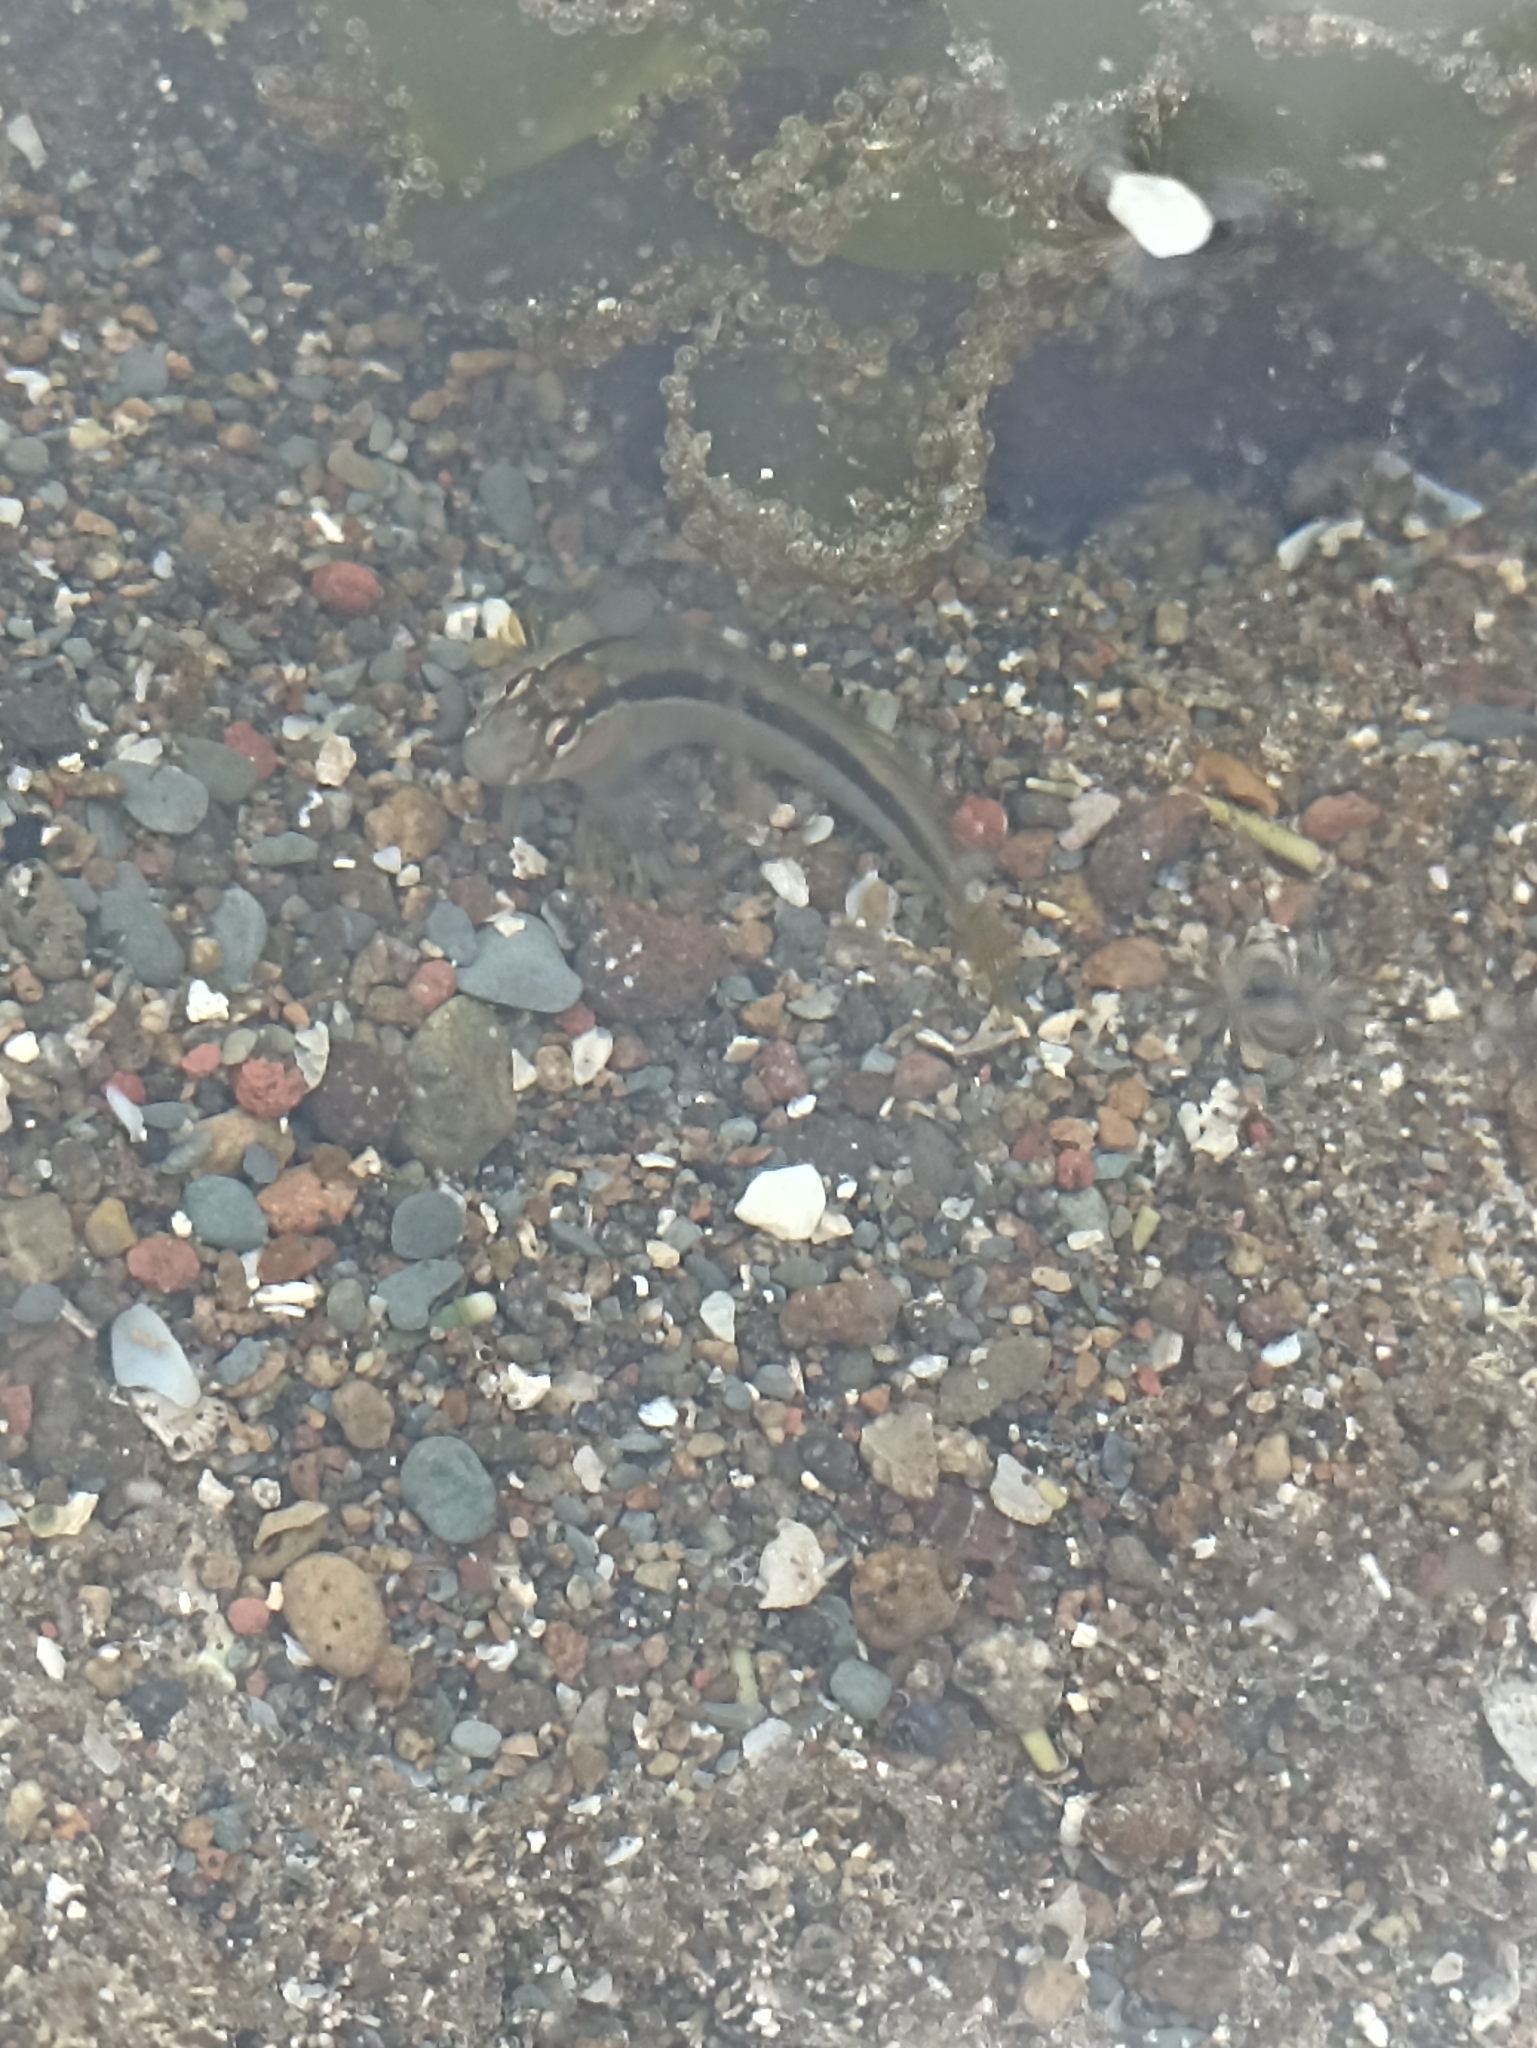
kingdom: Animalia
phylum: Chordata
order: Perciformes
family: Blenniidae
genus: Parablennius
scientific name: Parablennius laticlavius
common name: Crested blenny
